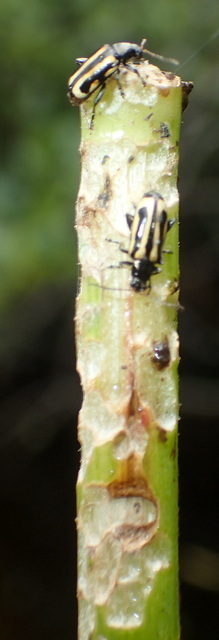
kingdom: Animalia
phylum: Arthropoda
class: Insecta
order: Coleoptera
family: Chrysomelidae
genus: Agasicles
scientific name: Agasicles hygrophila
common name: Alligatorweed flea beetle
